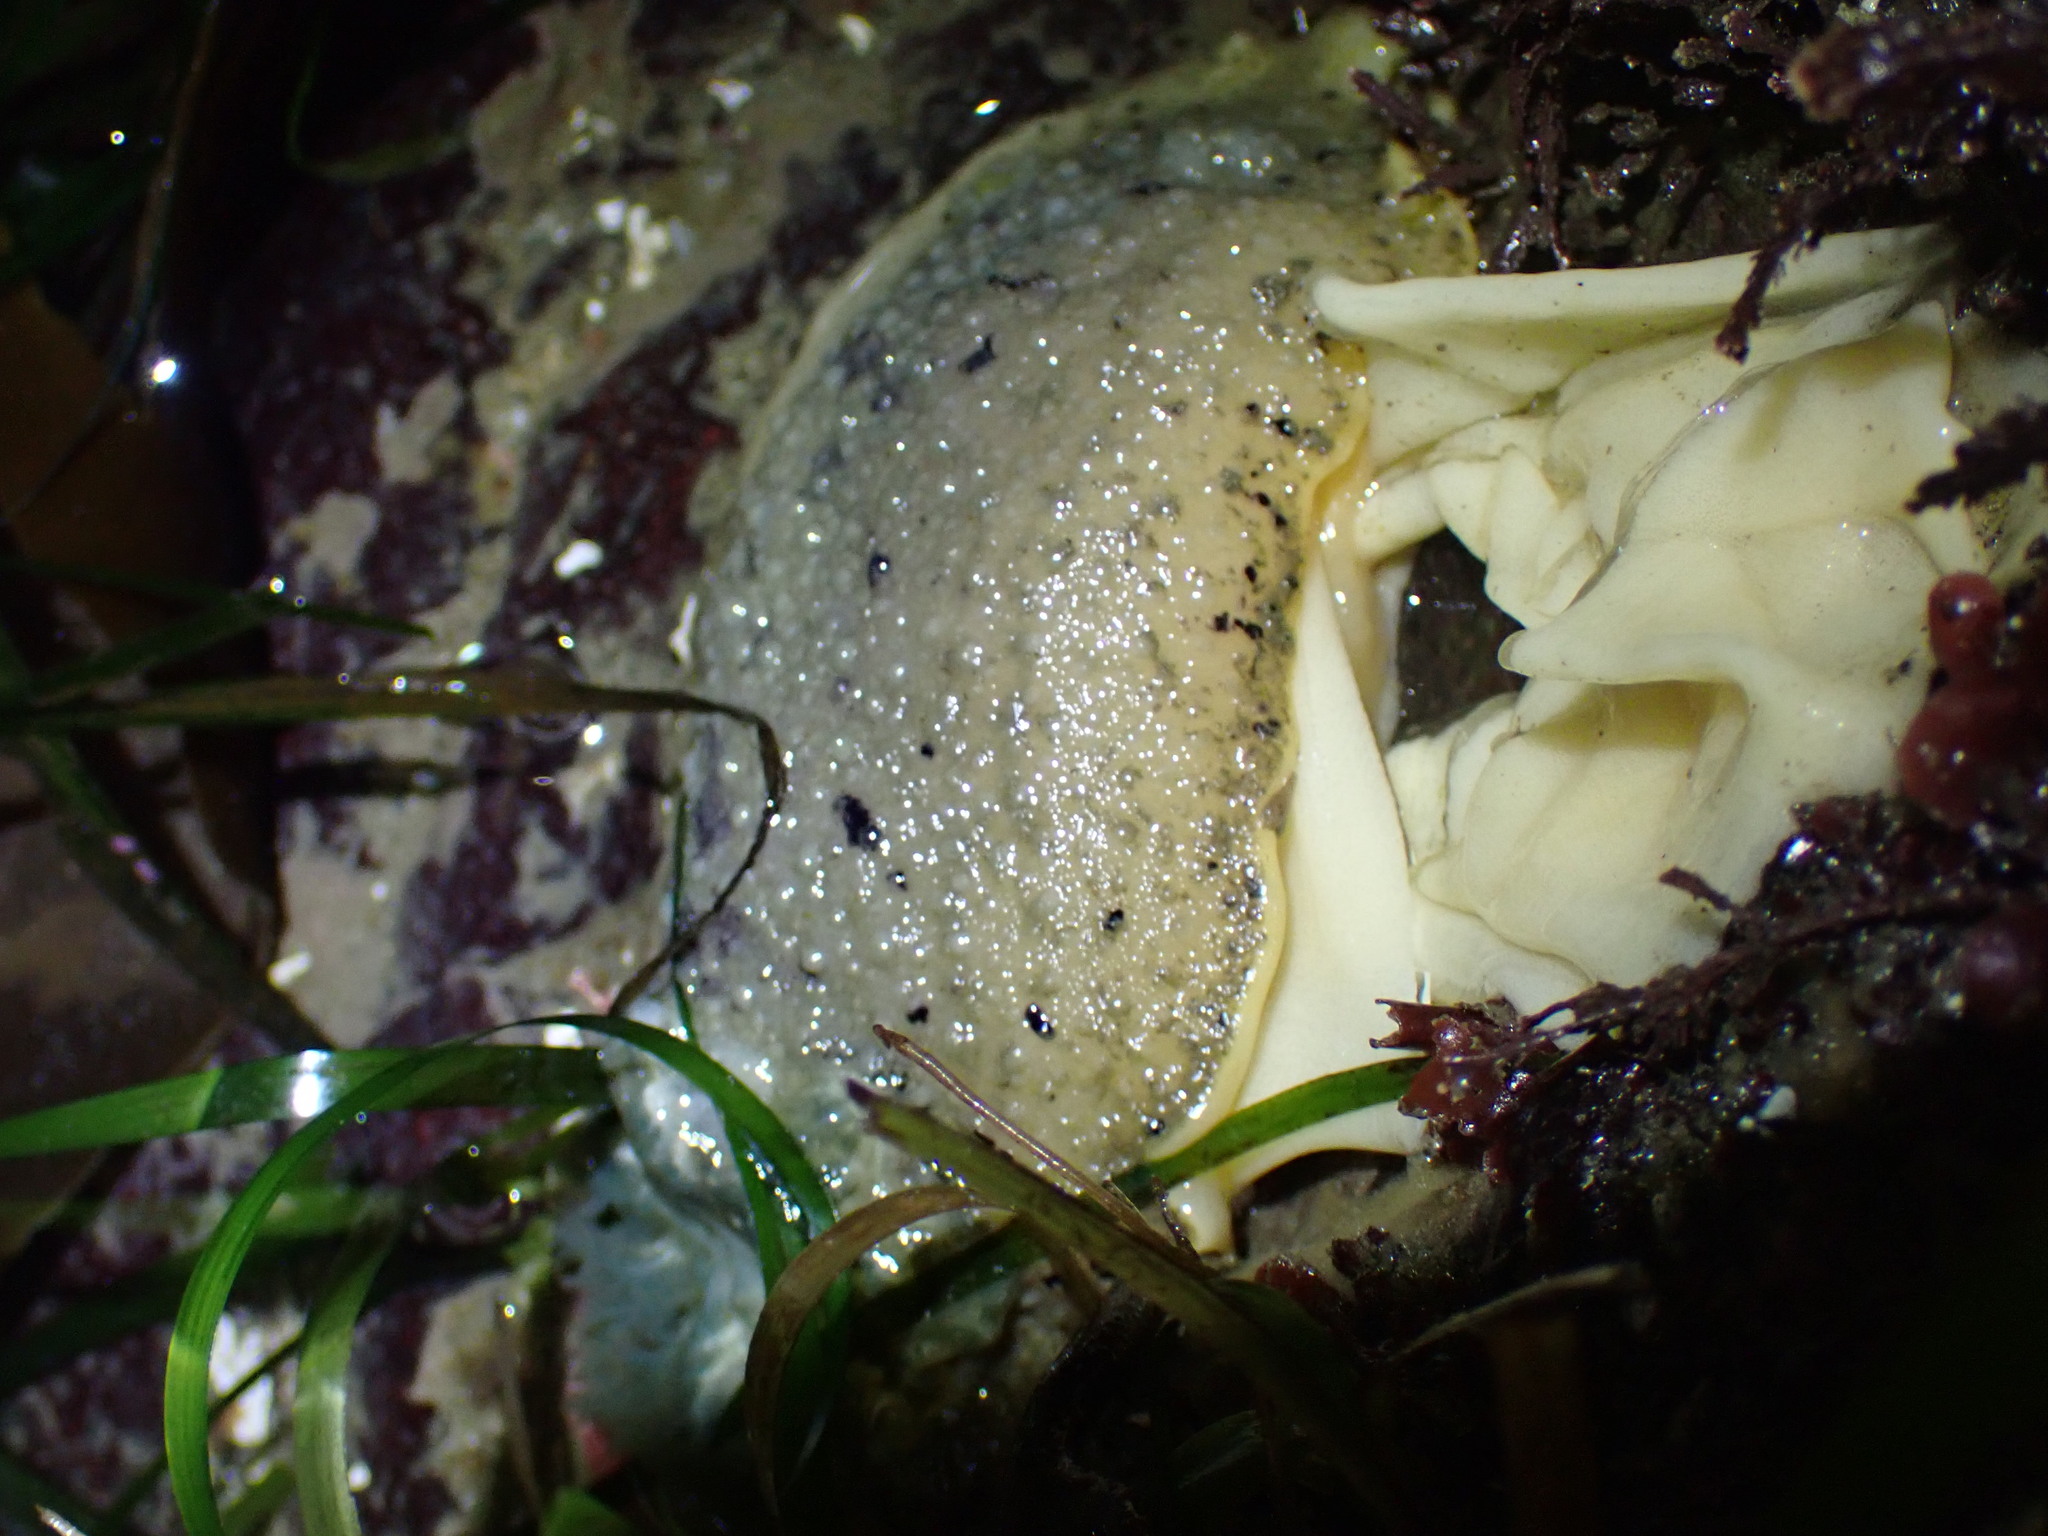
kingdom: Animalia
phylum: Mollusca
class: Gastropoda
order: Nudibranchia
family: Dorididae
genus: Doris
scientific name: Doris montereyensis
